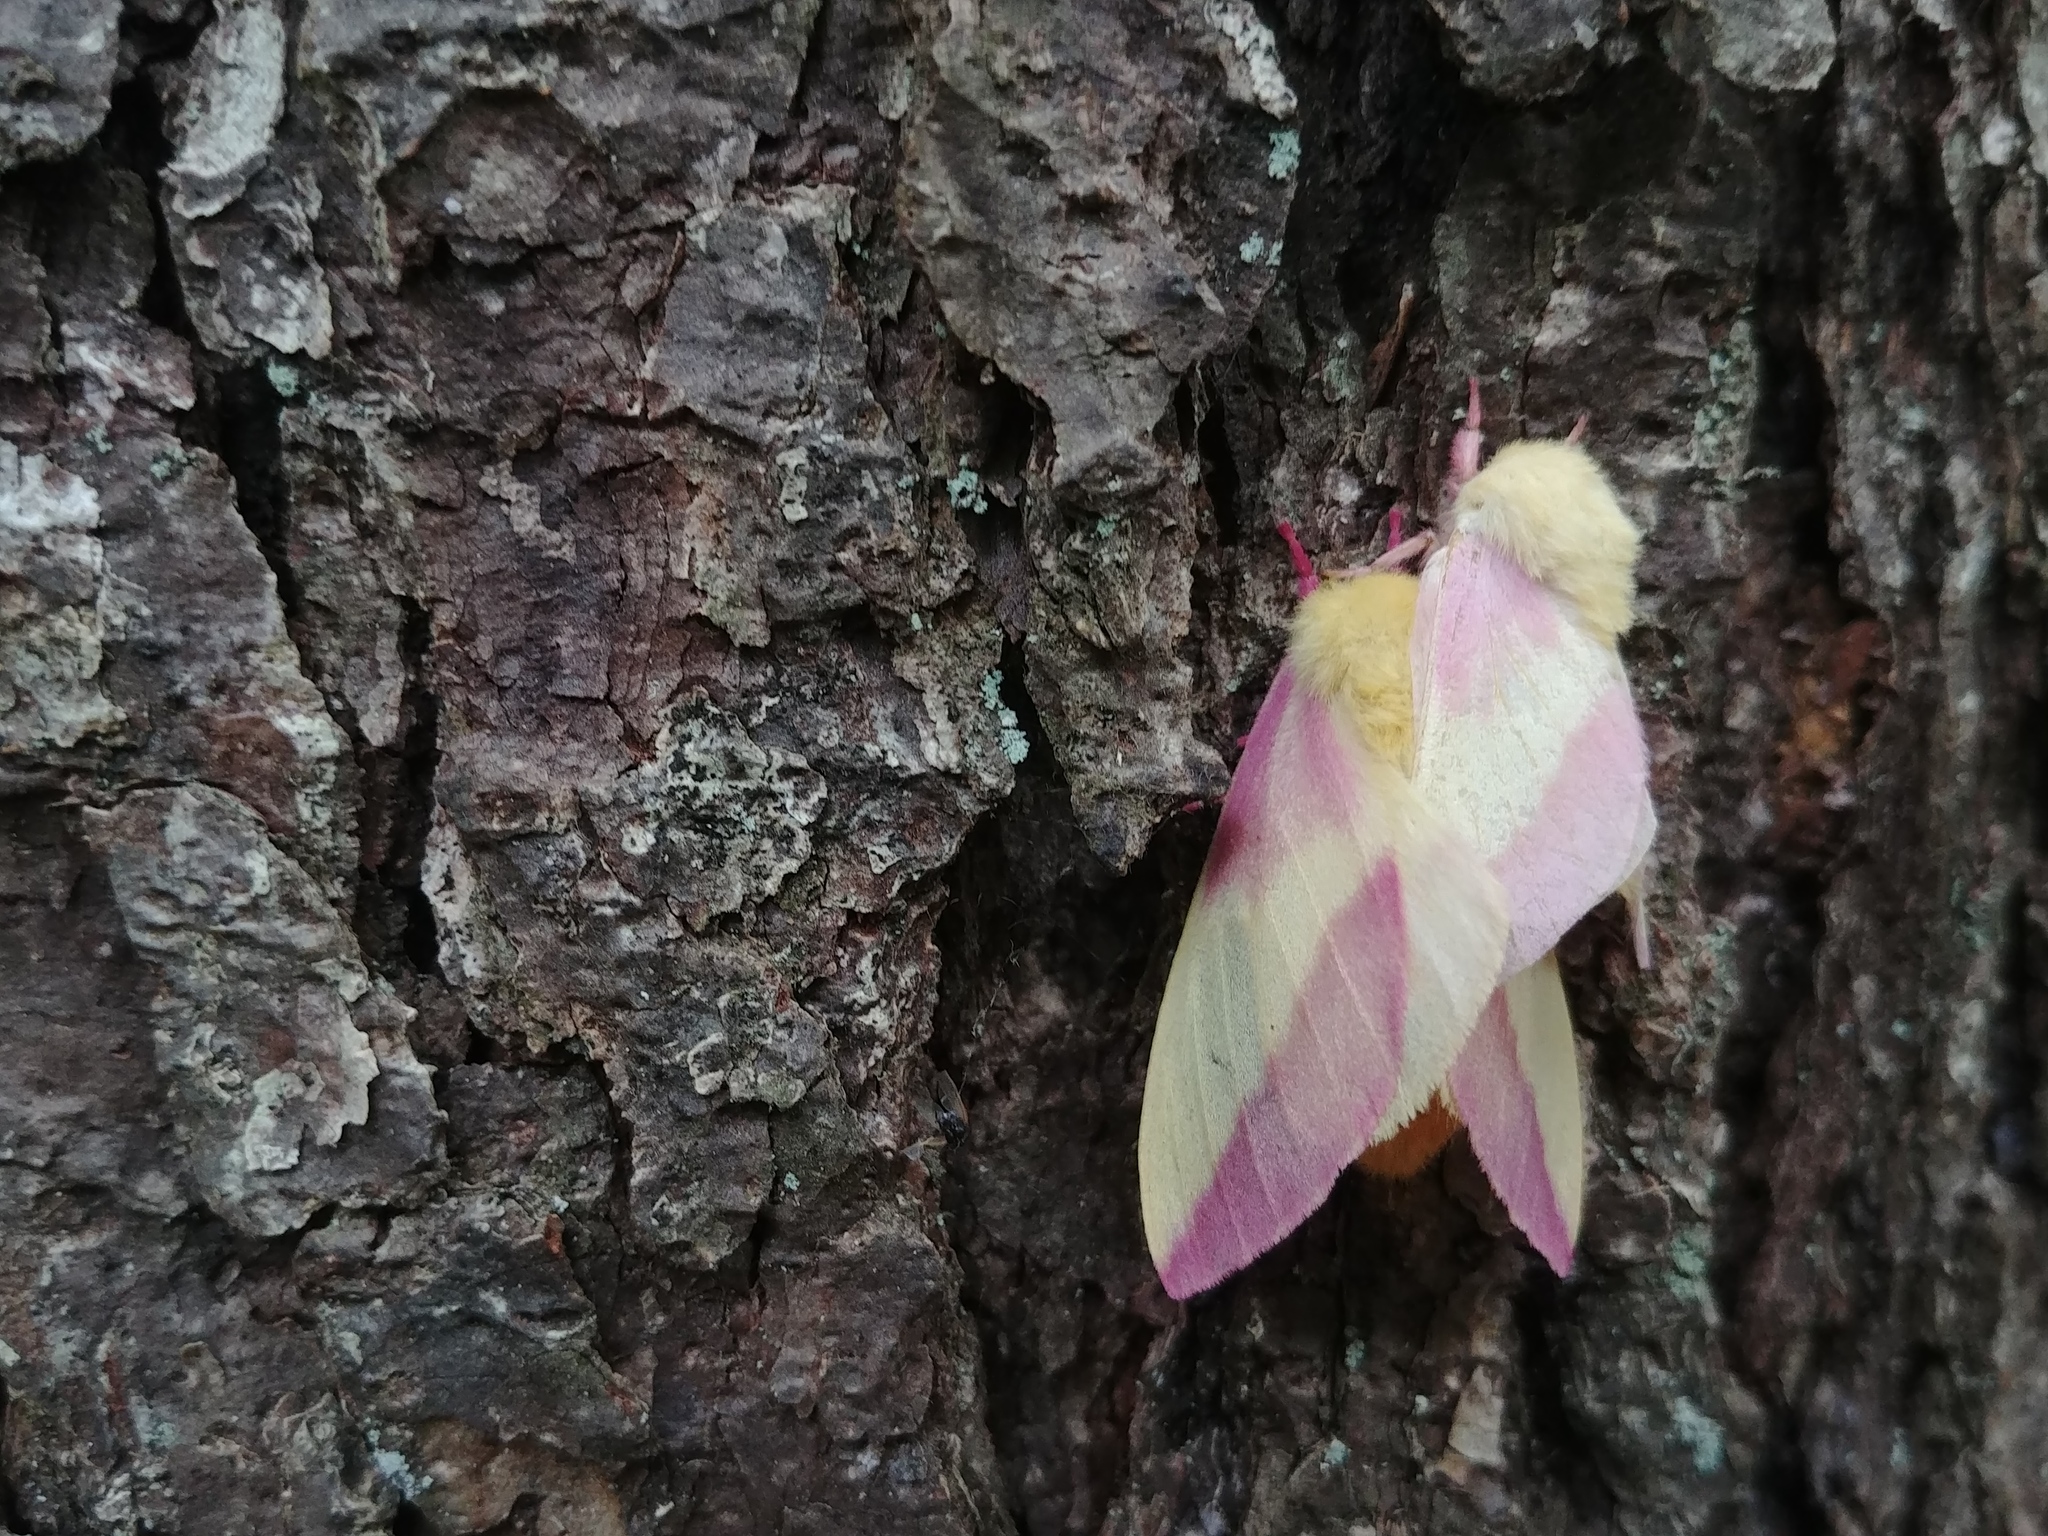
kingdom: Animalia
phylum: Arthropoda
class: Insecta
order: Lepidoptera
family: Saturniidae
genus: Dryocampa
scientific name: Dryocampa rubicunda
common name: Rosy maple moth
